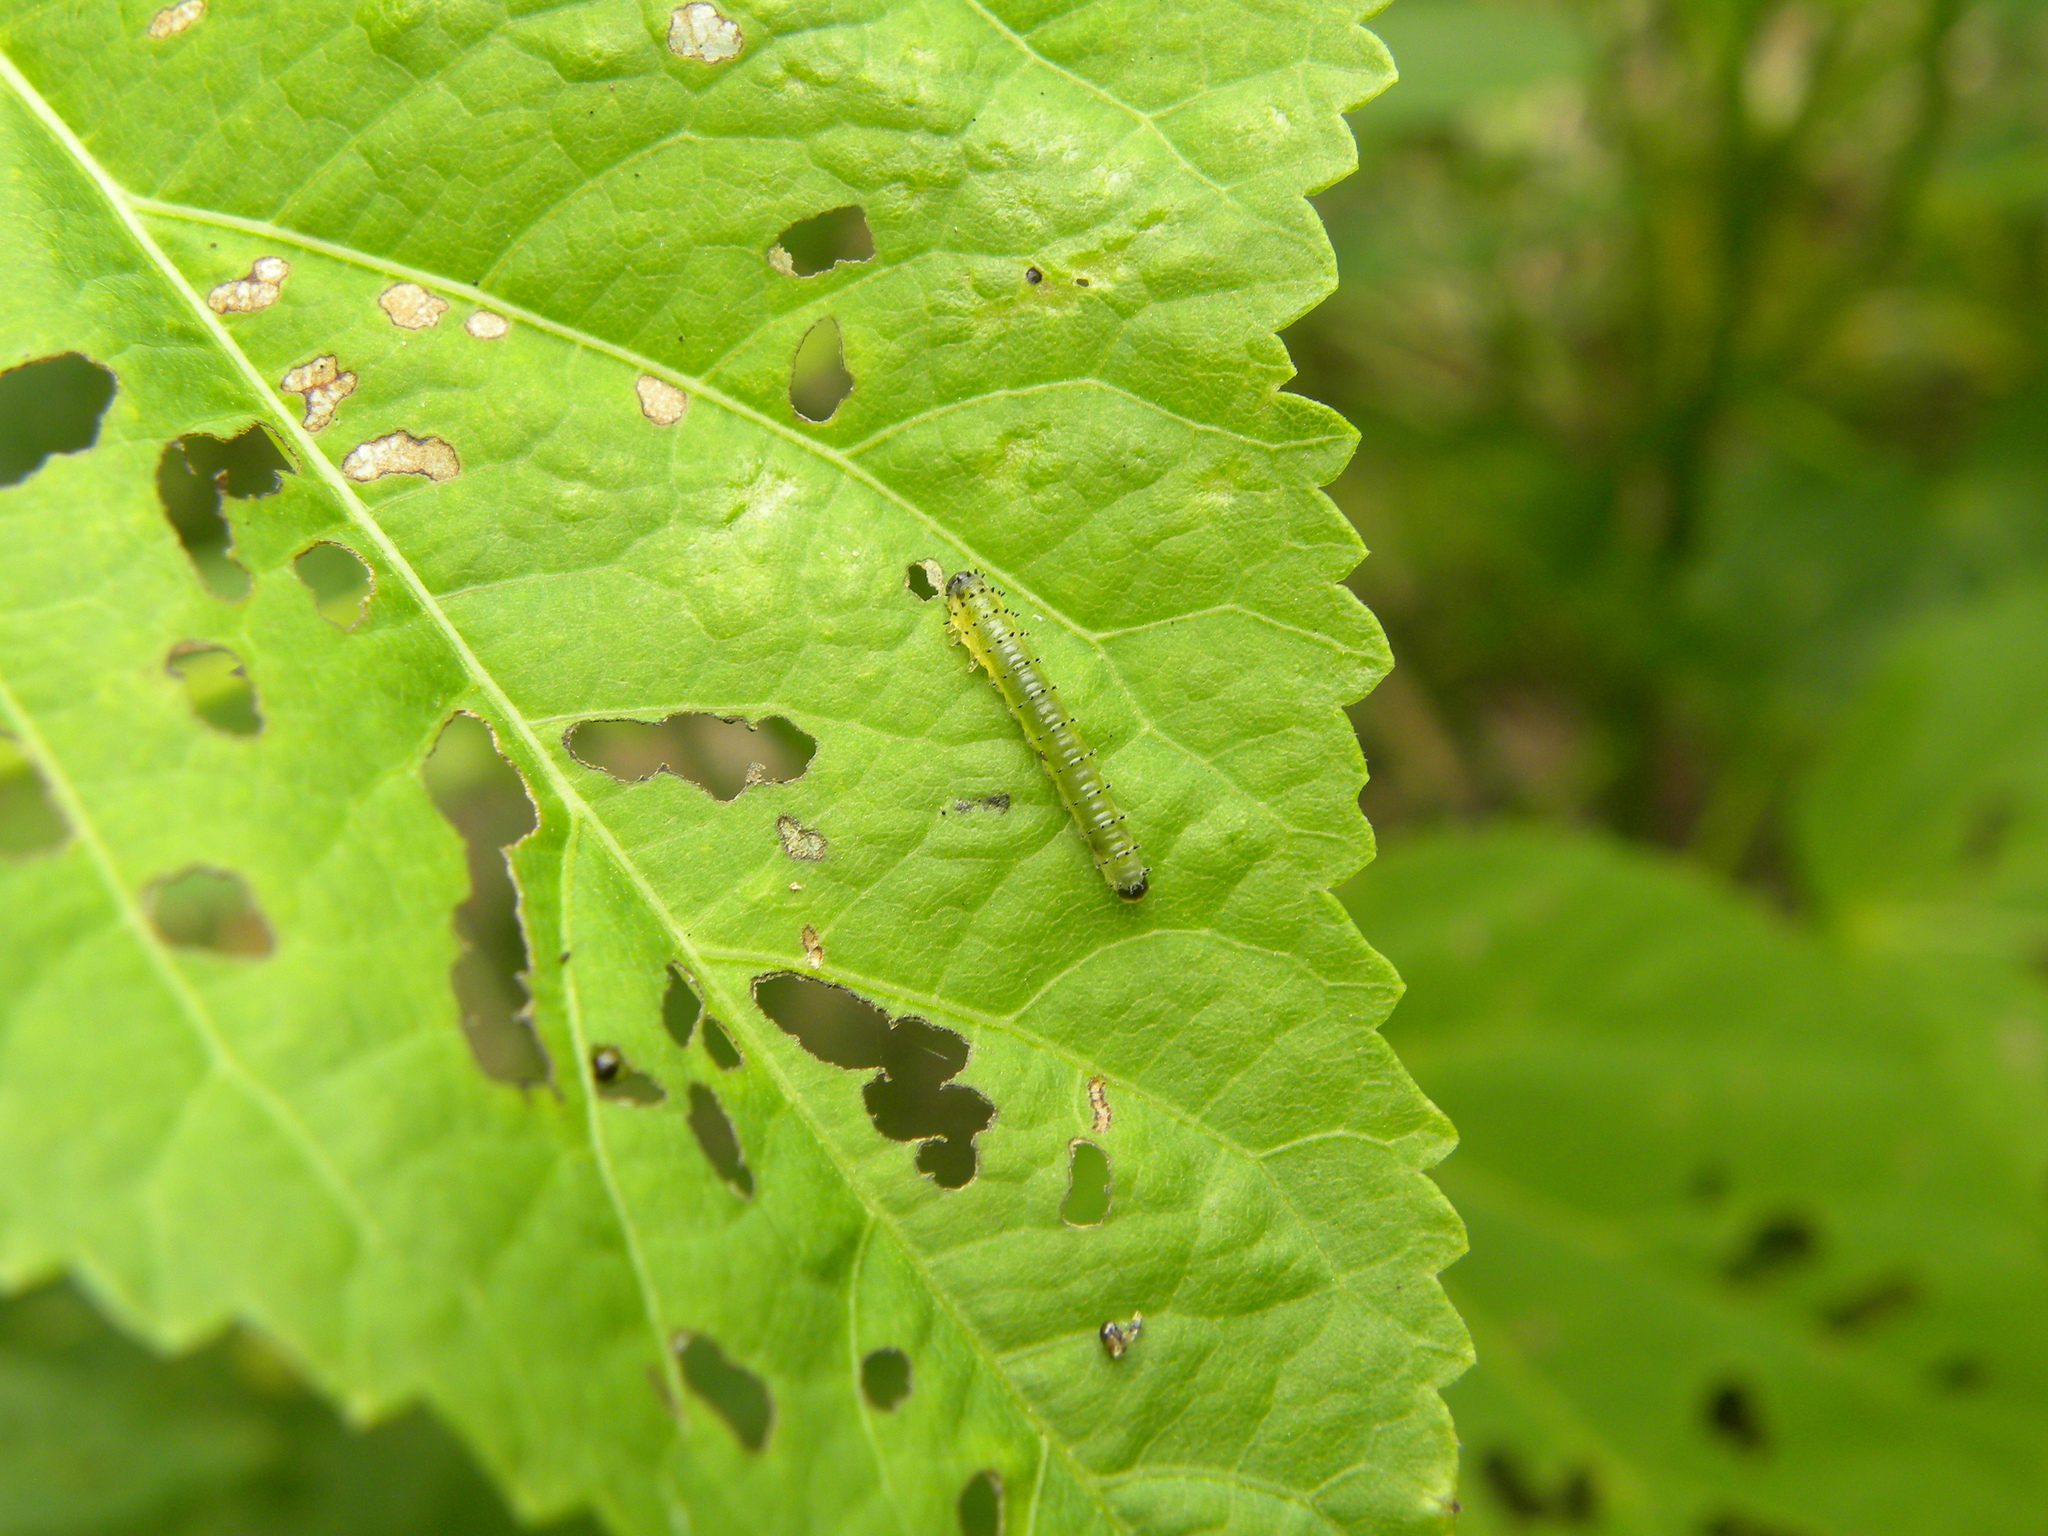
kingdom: Animalia
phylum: Arthropoda
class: Insecta
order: Hymenoptera
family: Argidae
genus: Atomacera
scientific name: Atomacera
